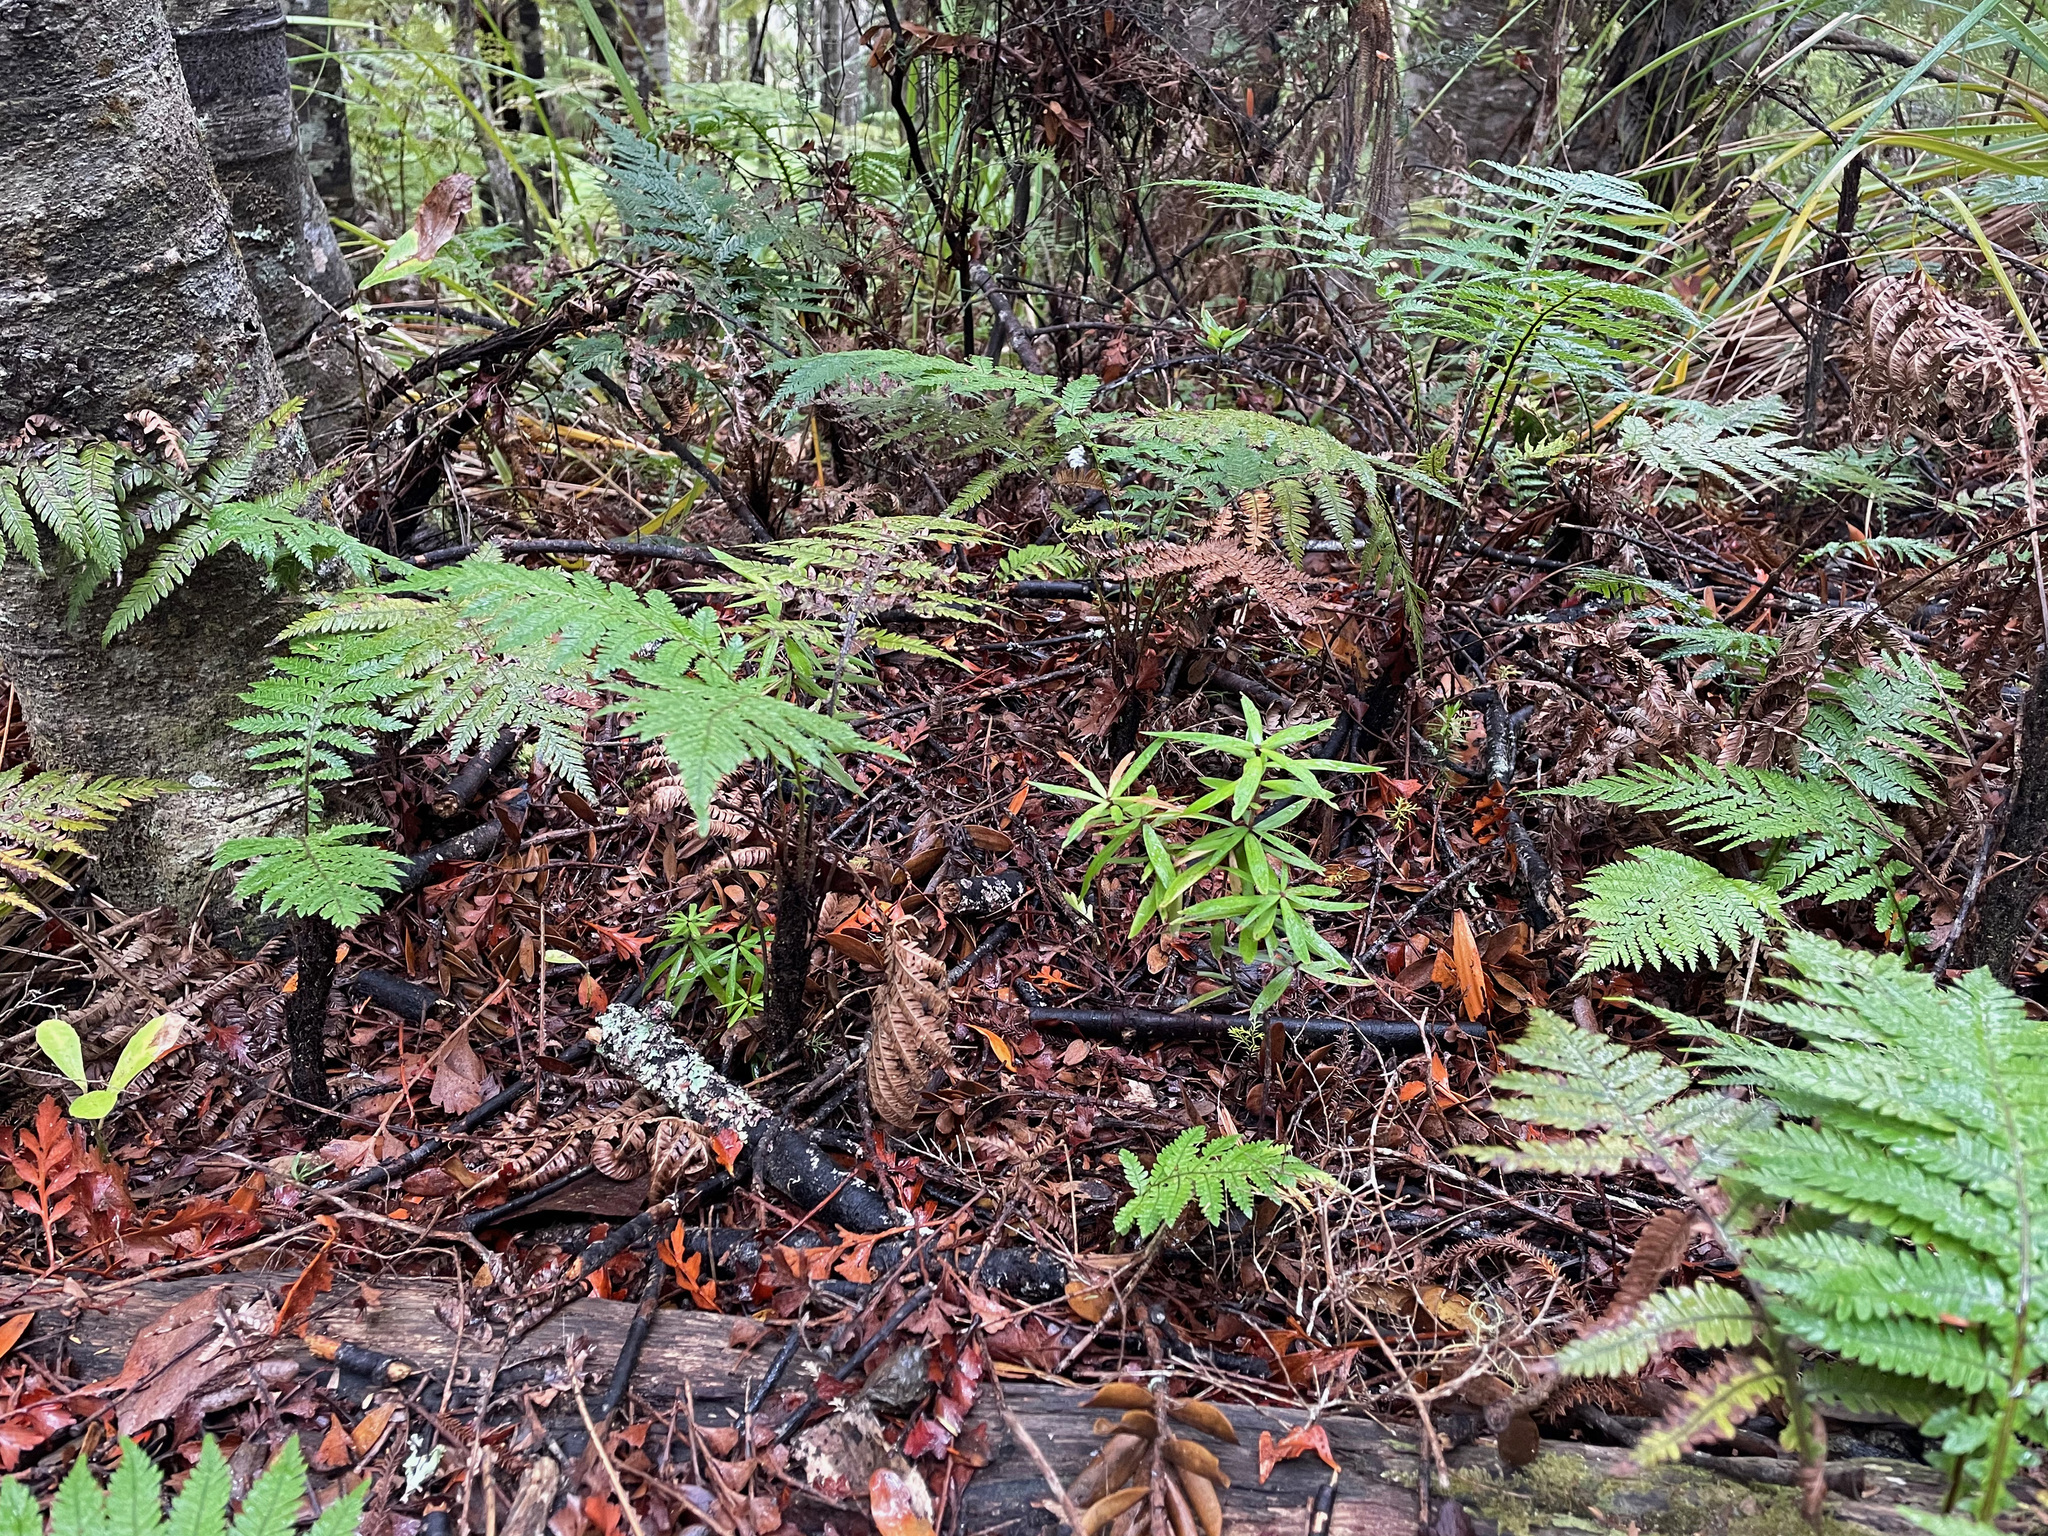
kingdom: Plantae
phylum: Tracheophyta
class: Polypodiopsida
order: Polypodiales
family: Blechnaceae
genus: Diploblechnum
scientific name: Diploblechnum fraseri
